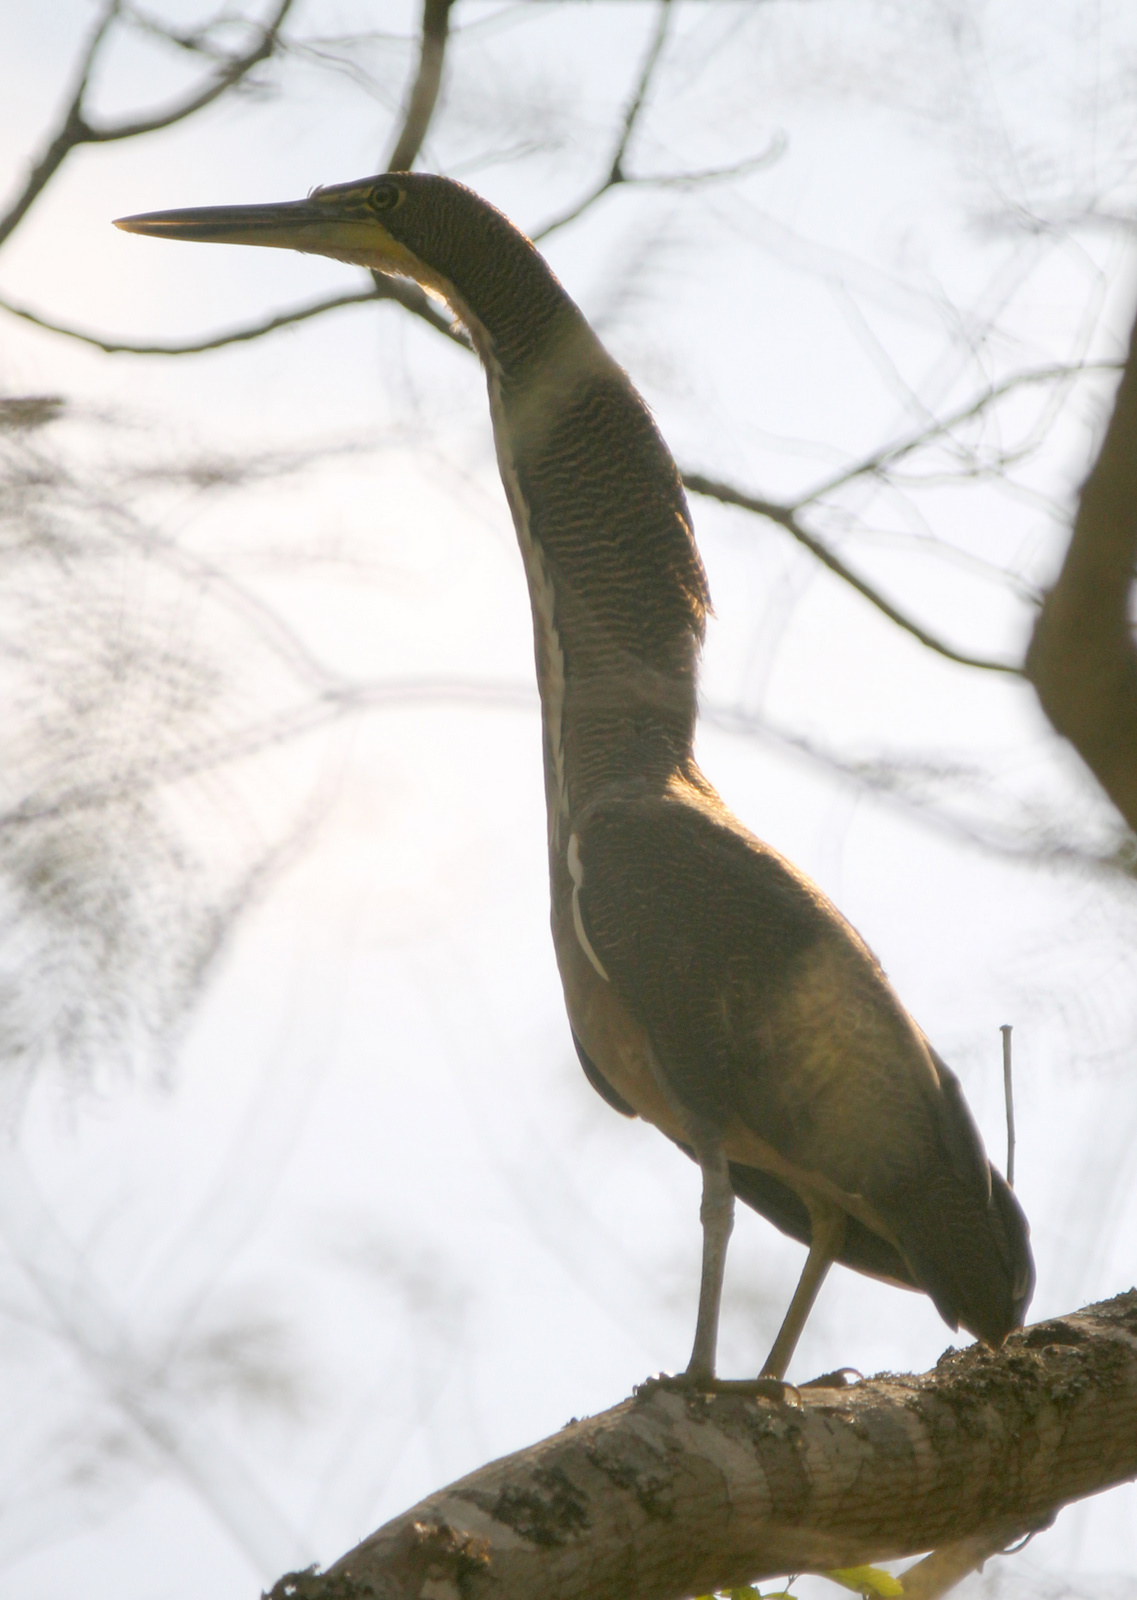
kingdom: Animalia
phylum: Chordata
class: Aves
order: Pelecaniformes
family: Ardeidae
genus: Tigrisoma
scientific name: Tigrisoma fasciatum
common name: Fasciated tiger-heron
